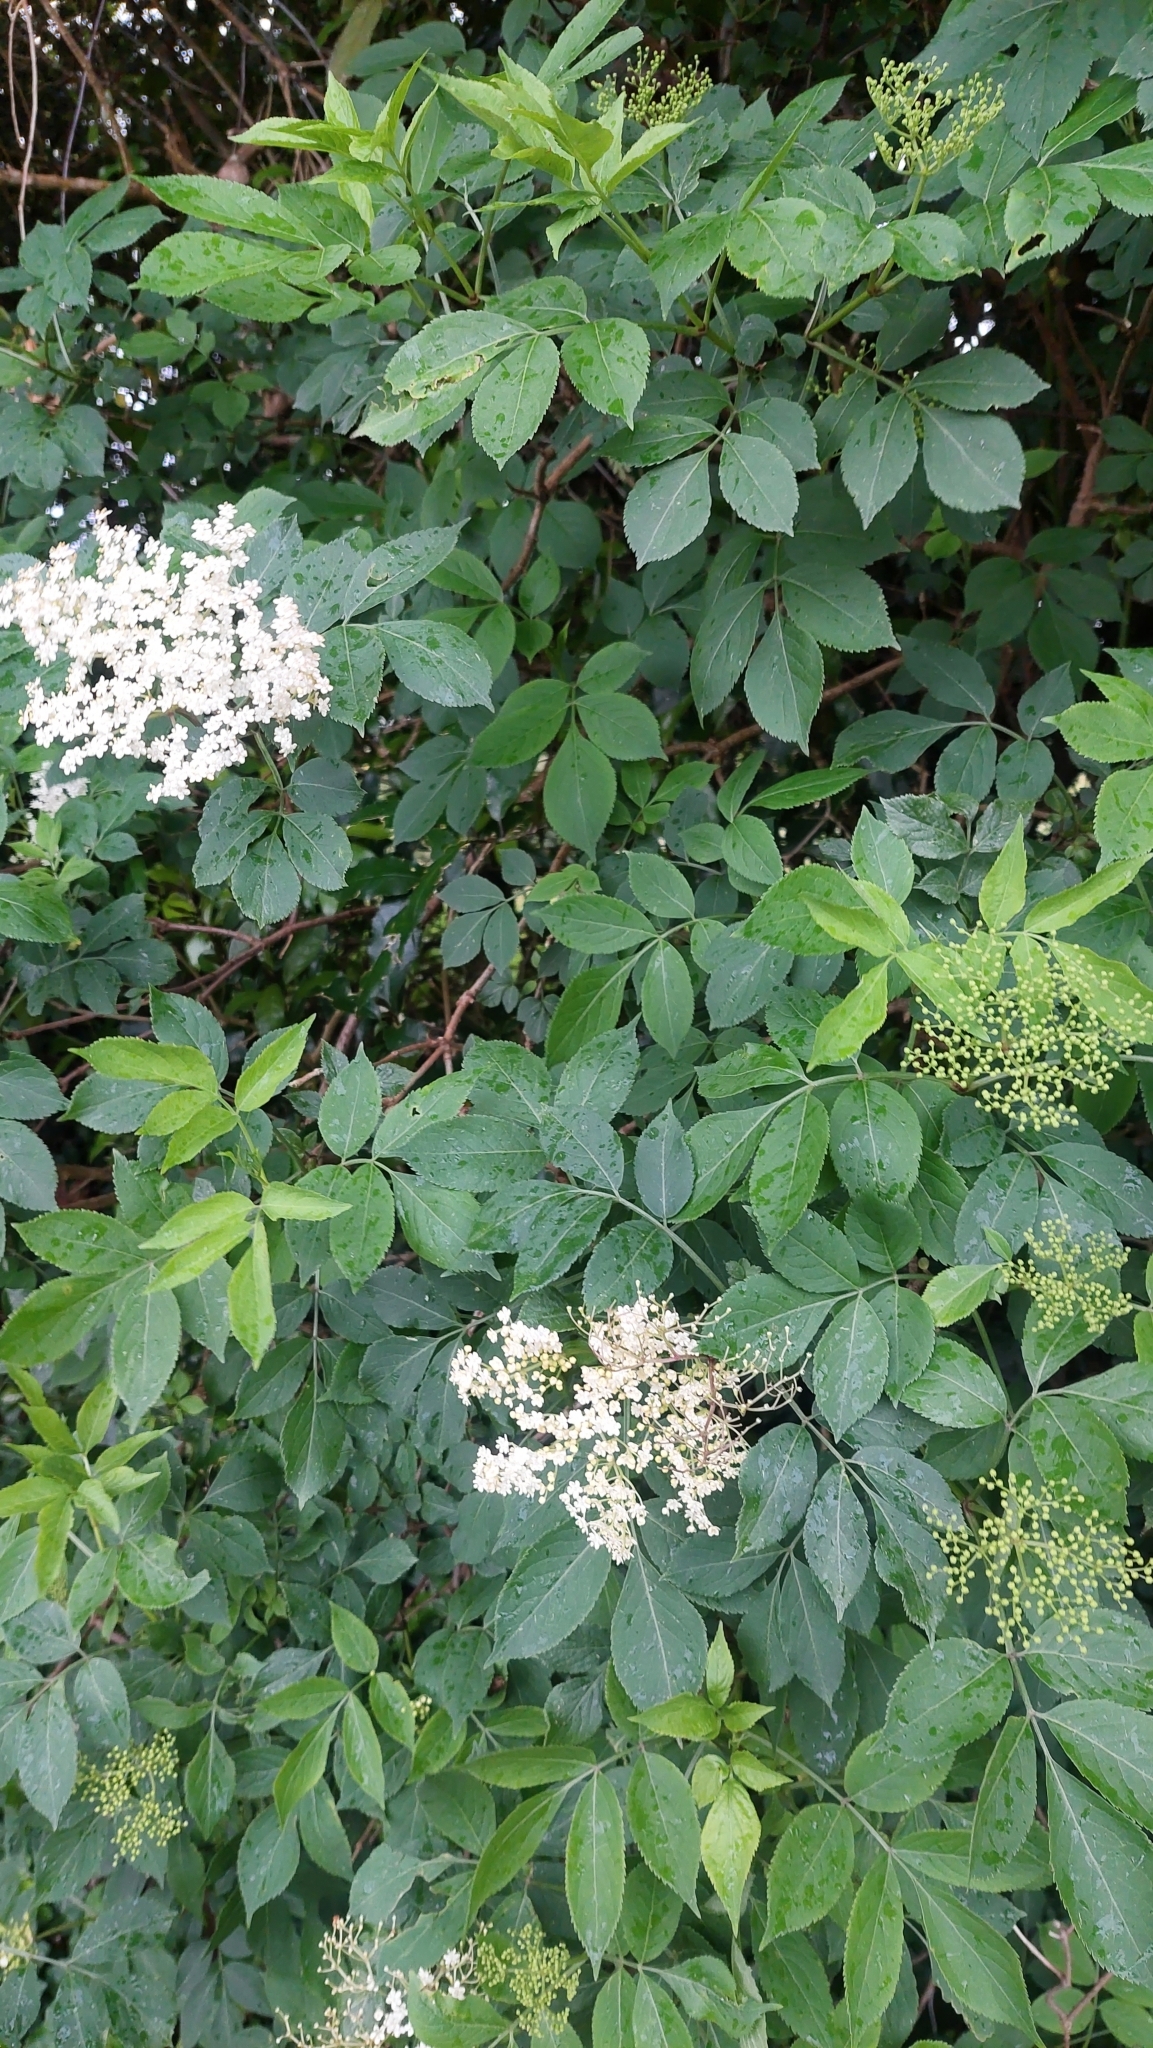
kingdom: Plantae
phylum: Tracheophyta
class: Magnoliopsida
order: Dipsacales
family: Viburnaceae
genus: Sambucus
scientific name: Sambucus nigra
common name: Elder
